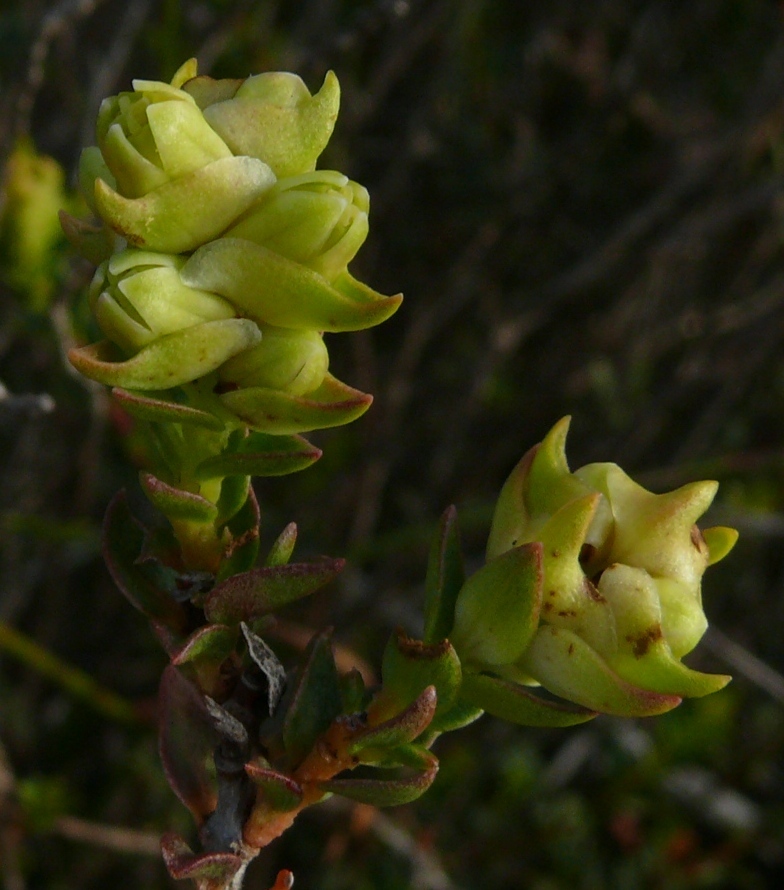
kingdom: Plantae
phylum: Tracheophyta
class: Magnoliopsida
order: Myrtales
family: Penaeaceae
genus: Penaea
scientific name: Penaea mucronata
